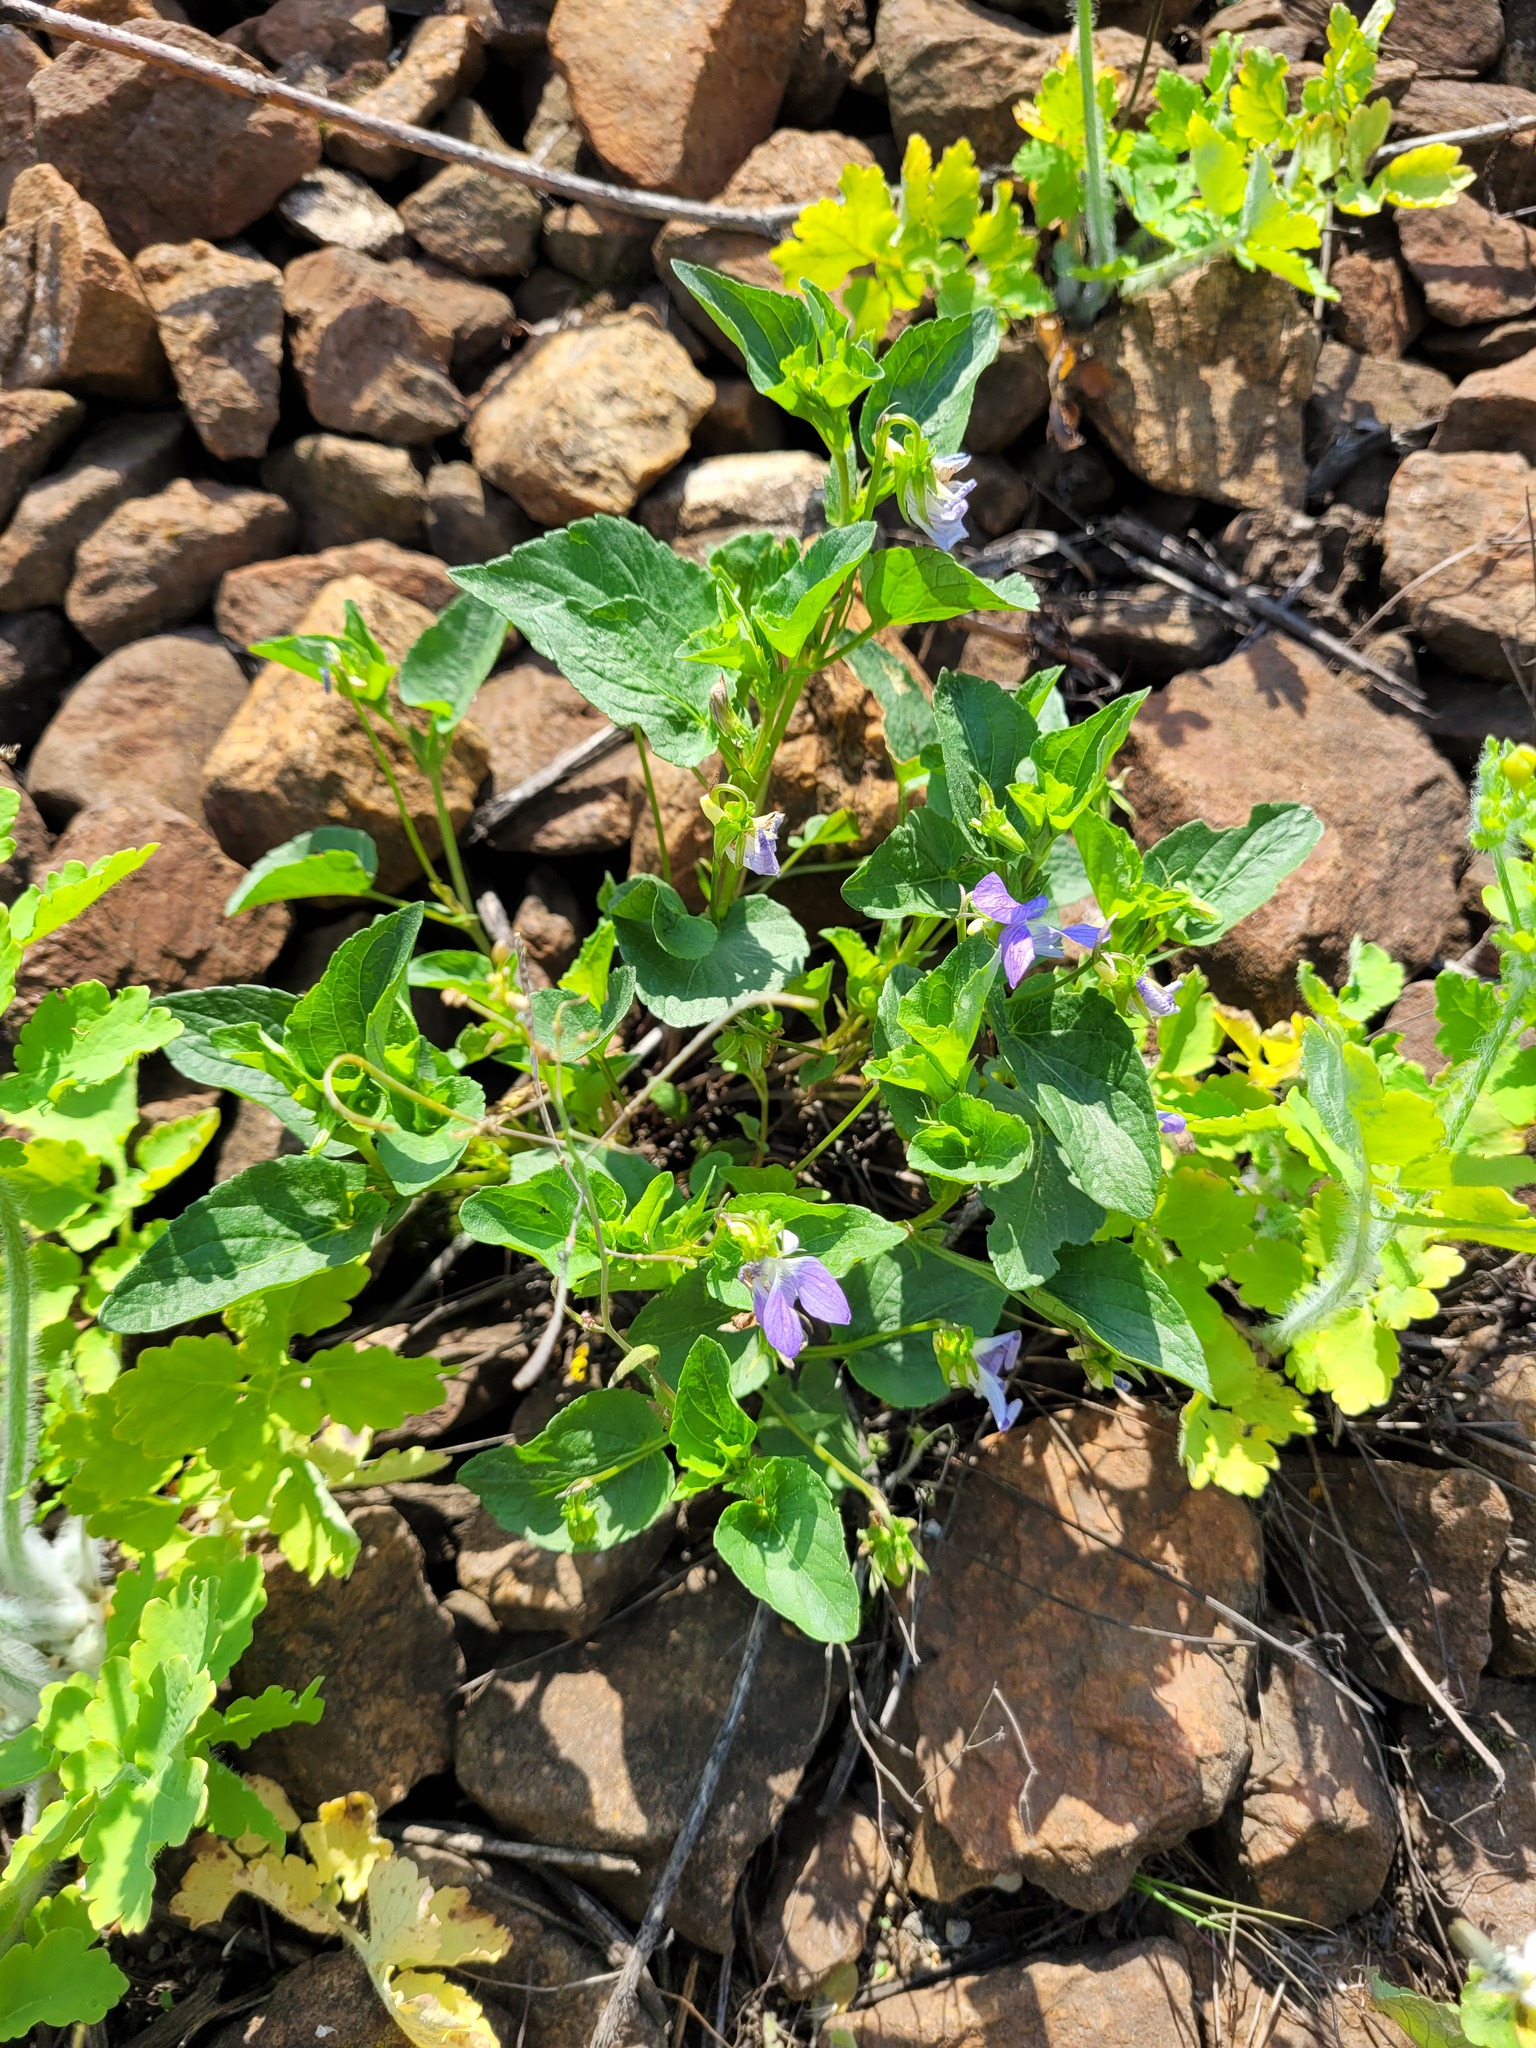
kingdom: Plantae
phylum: Tracheophyta
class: Magnoliopsida
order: Malpighiales
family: Violaceae
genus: Viola
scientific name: Viola
